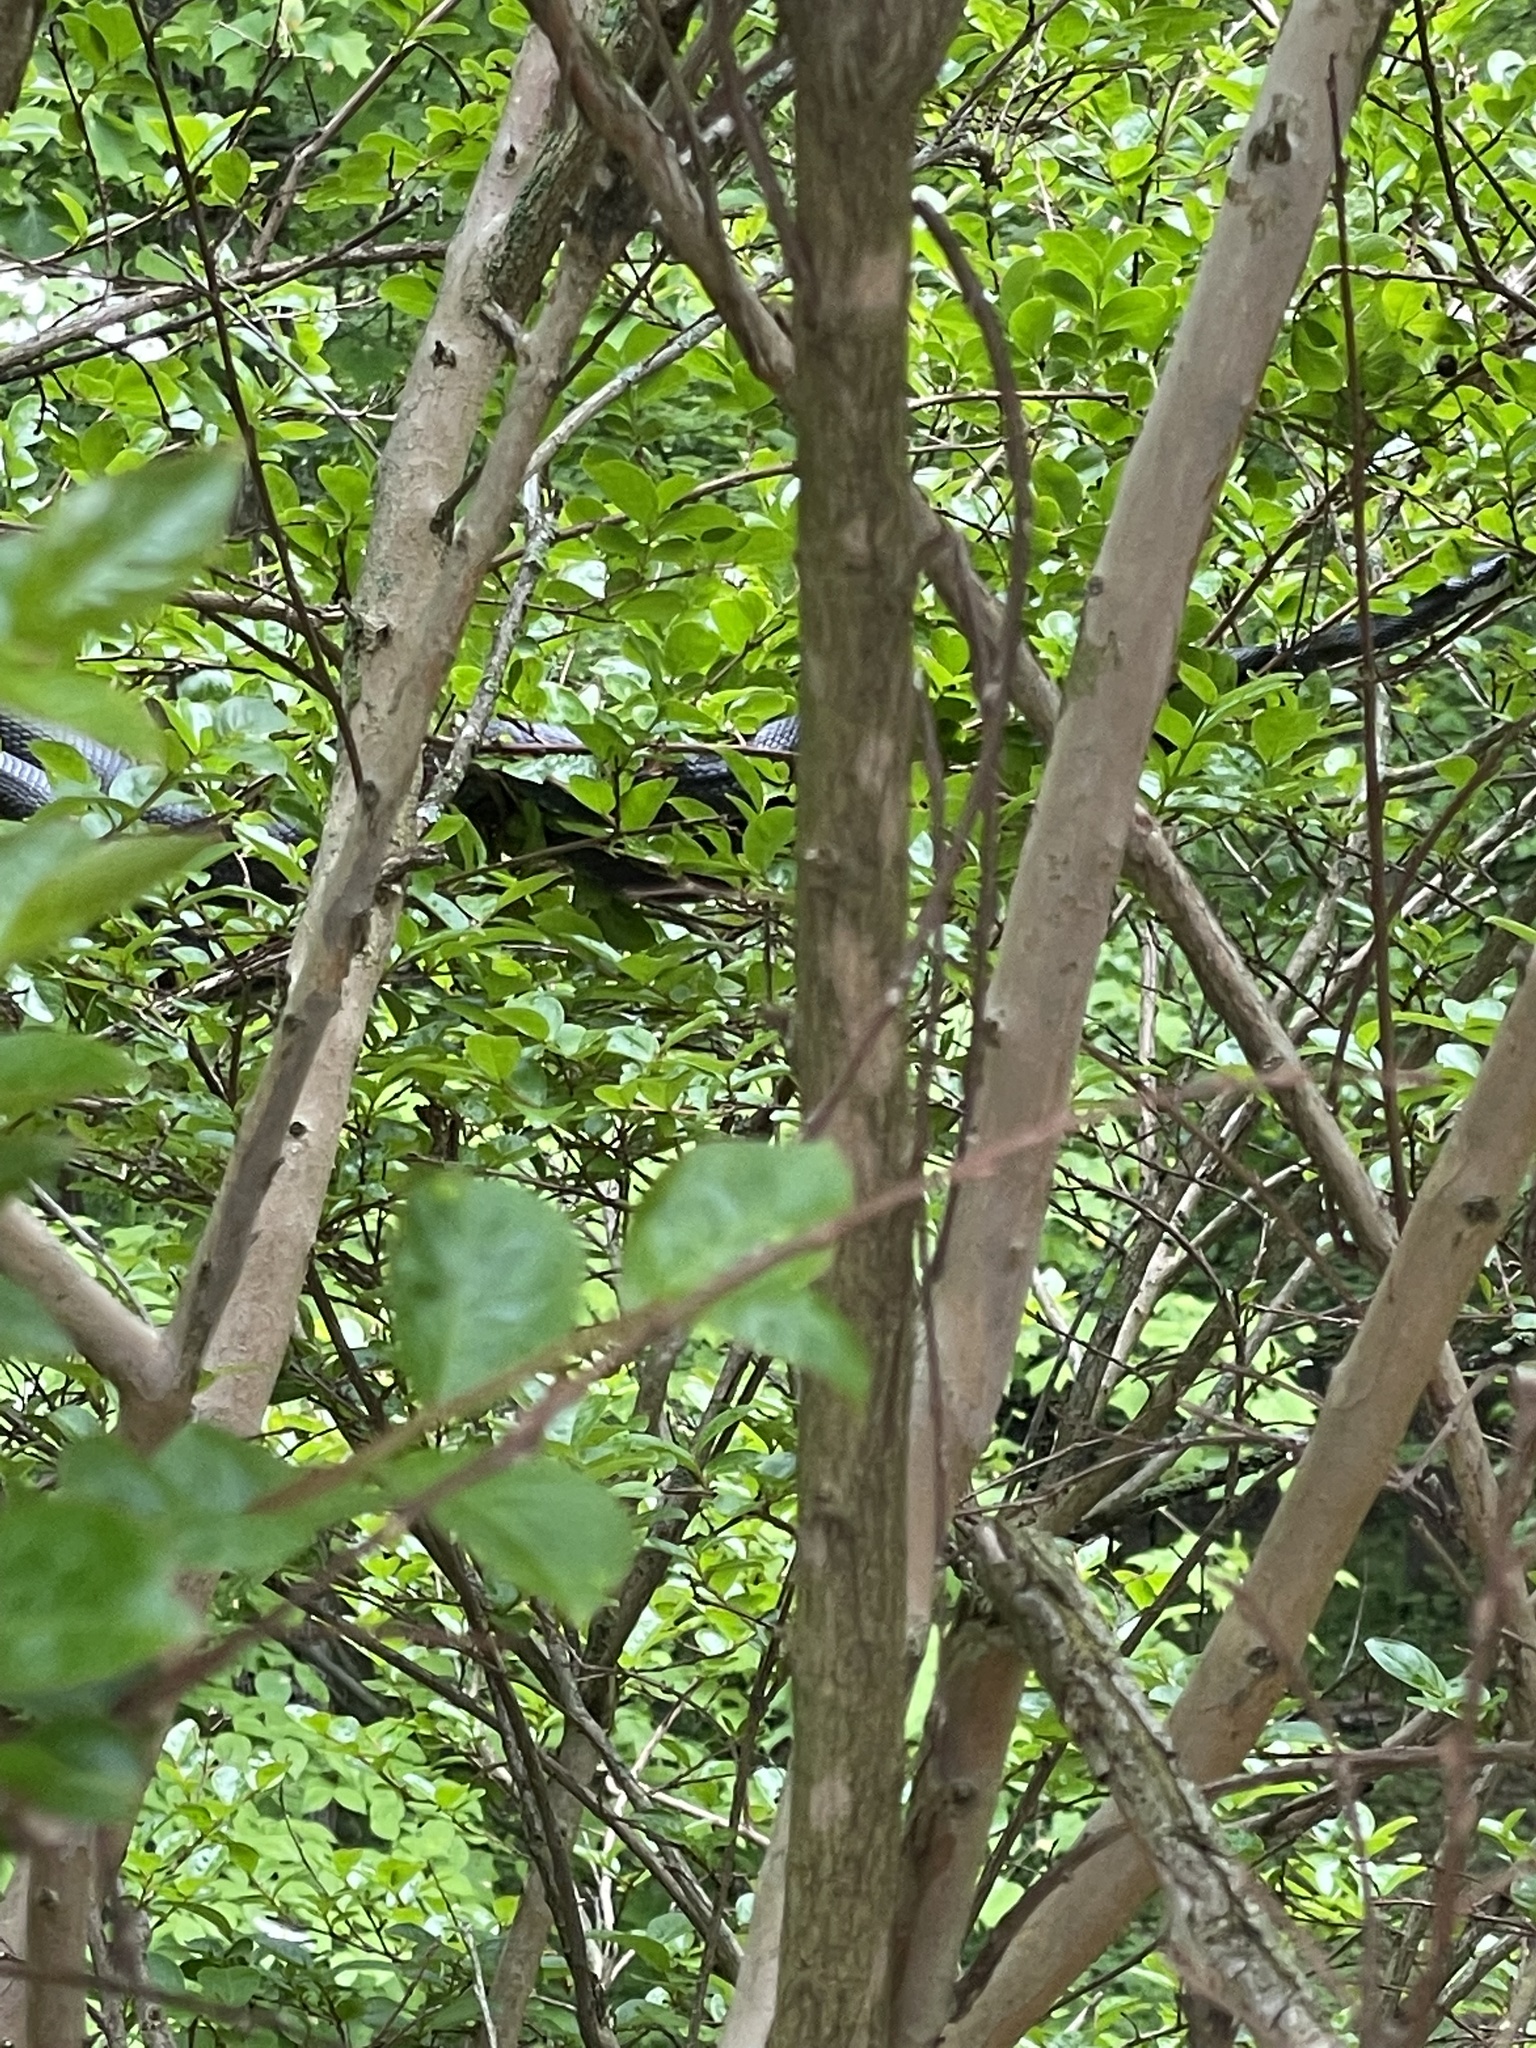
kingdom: Animalia
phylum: Chordata
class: Squamata
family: Colubridae
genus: Pantherophis
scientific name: Pantherophis alleghaniensis
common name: Eastern rat snake
